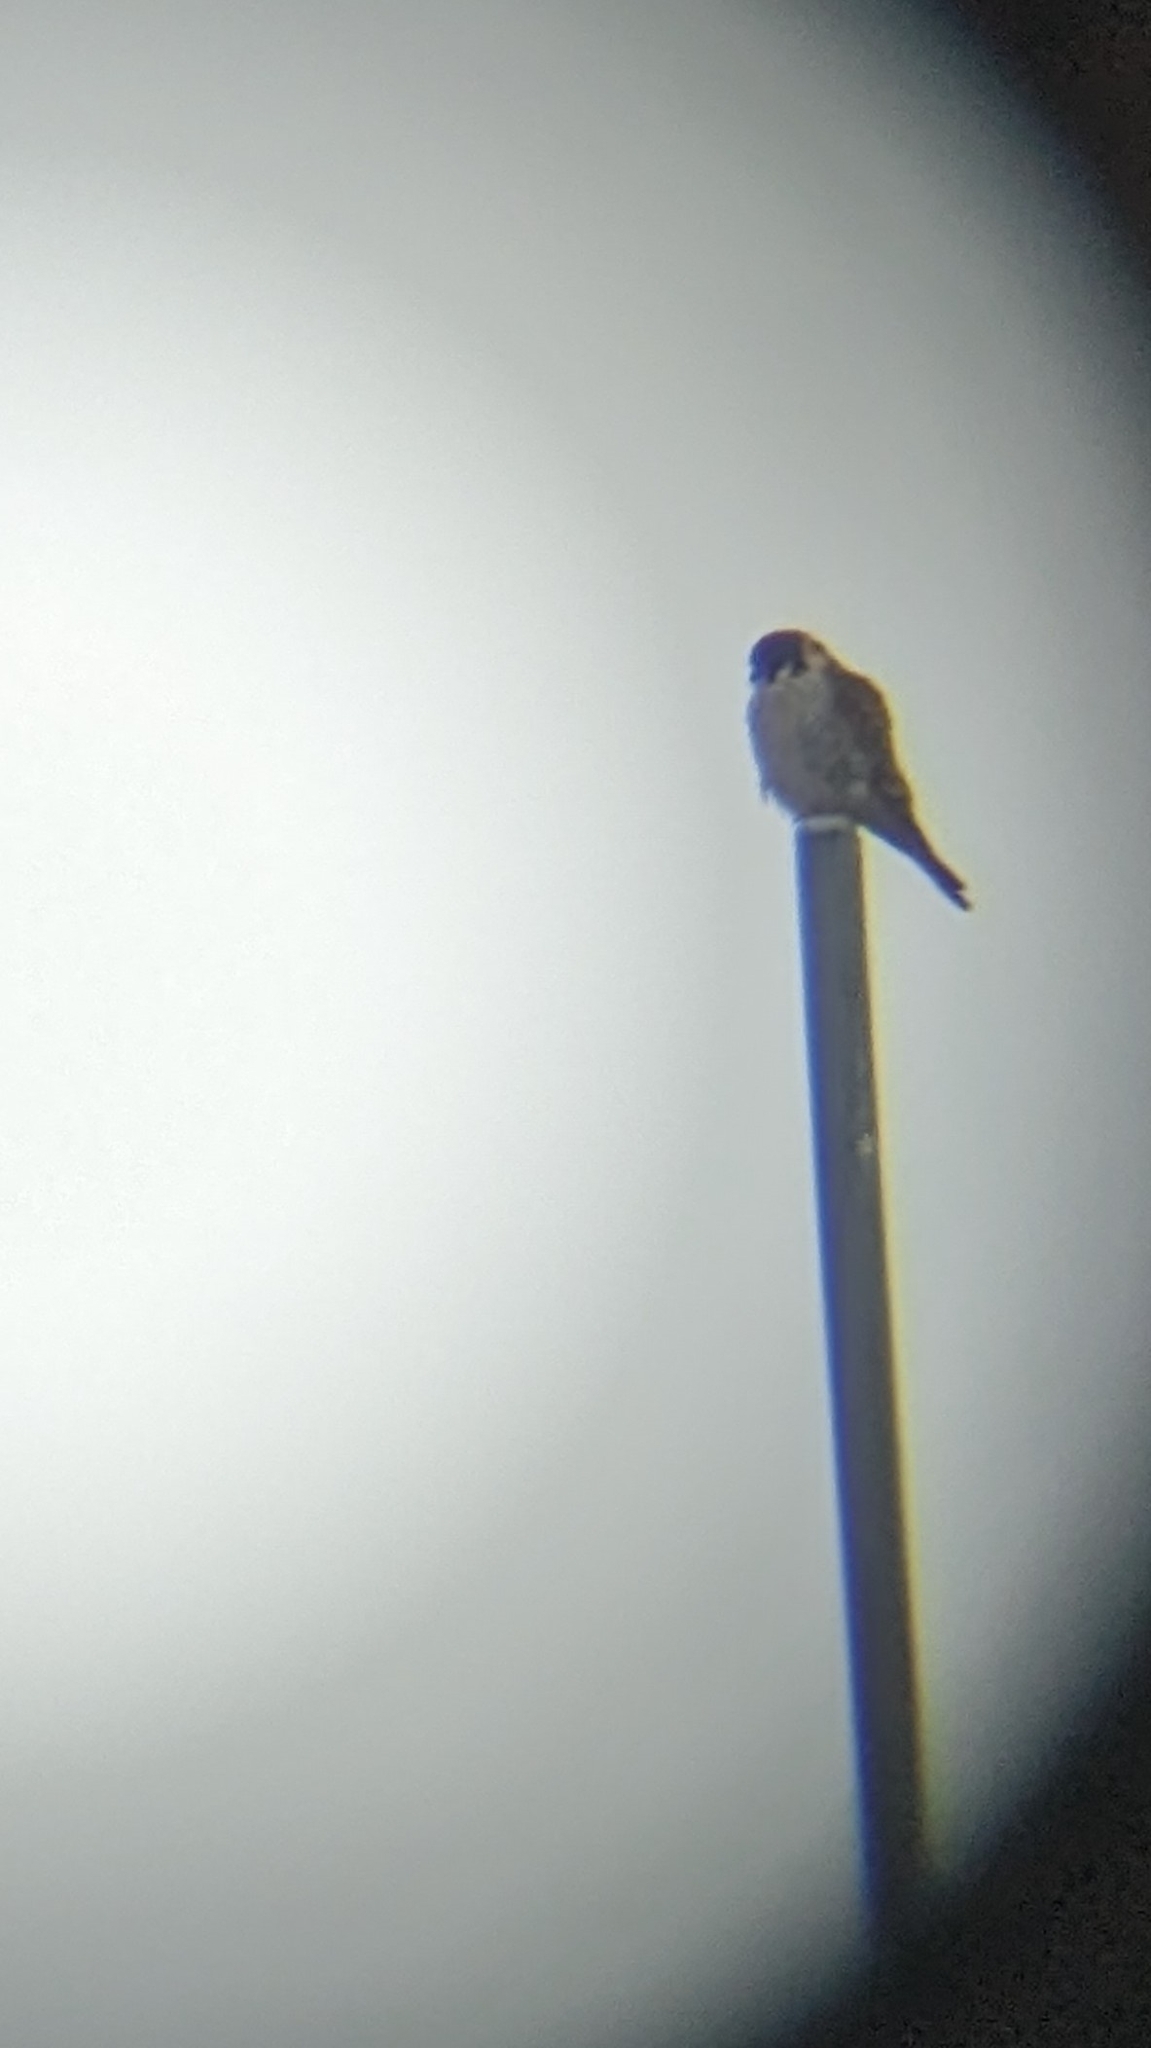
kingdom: Animalia
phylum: Chordata
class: Aves
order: Falconiformes
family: Falconidae
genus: Falco
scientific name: Falco sparverius
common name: American kestrel
